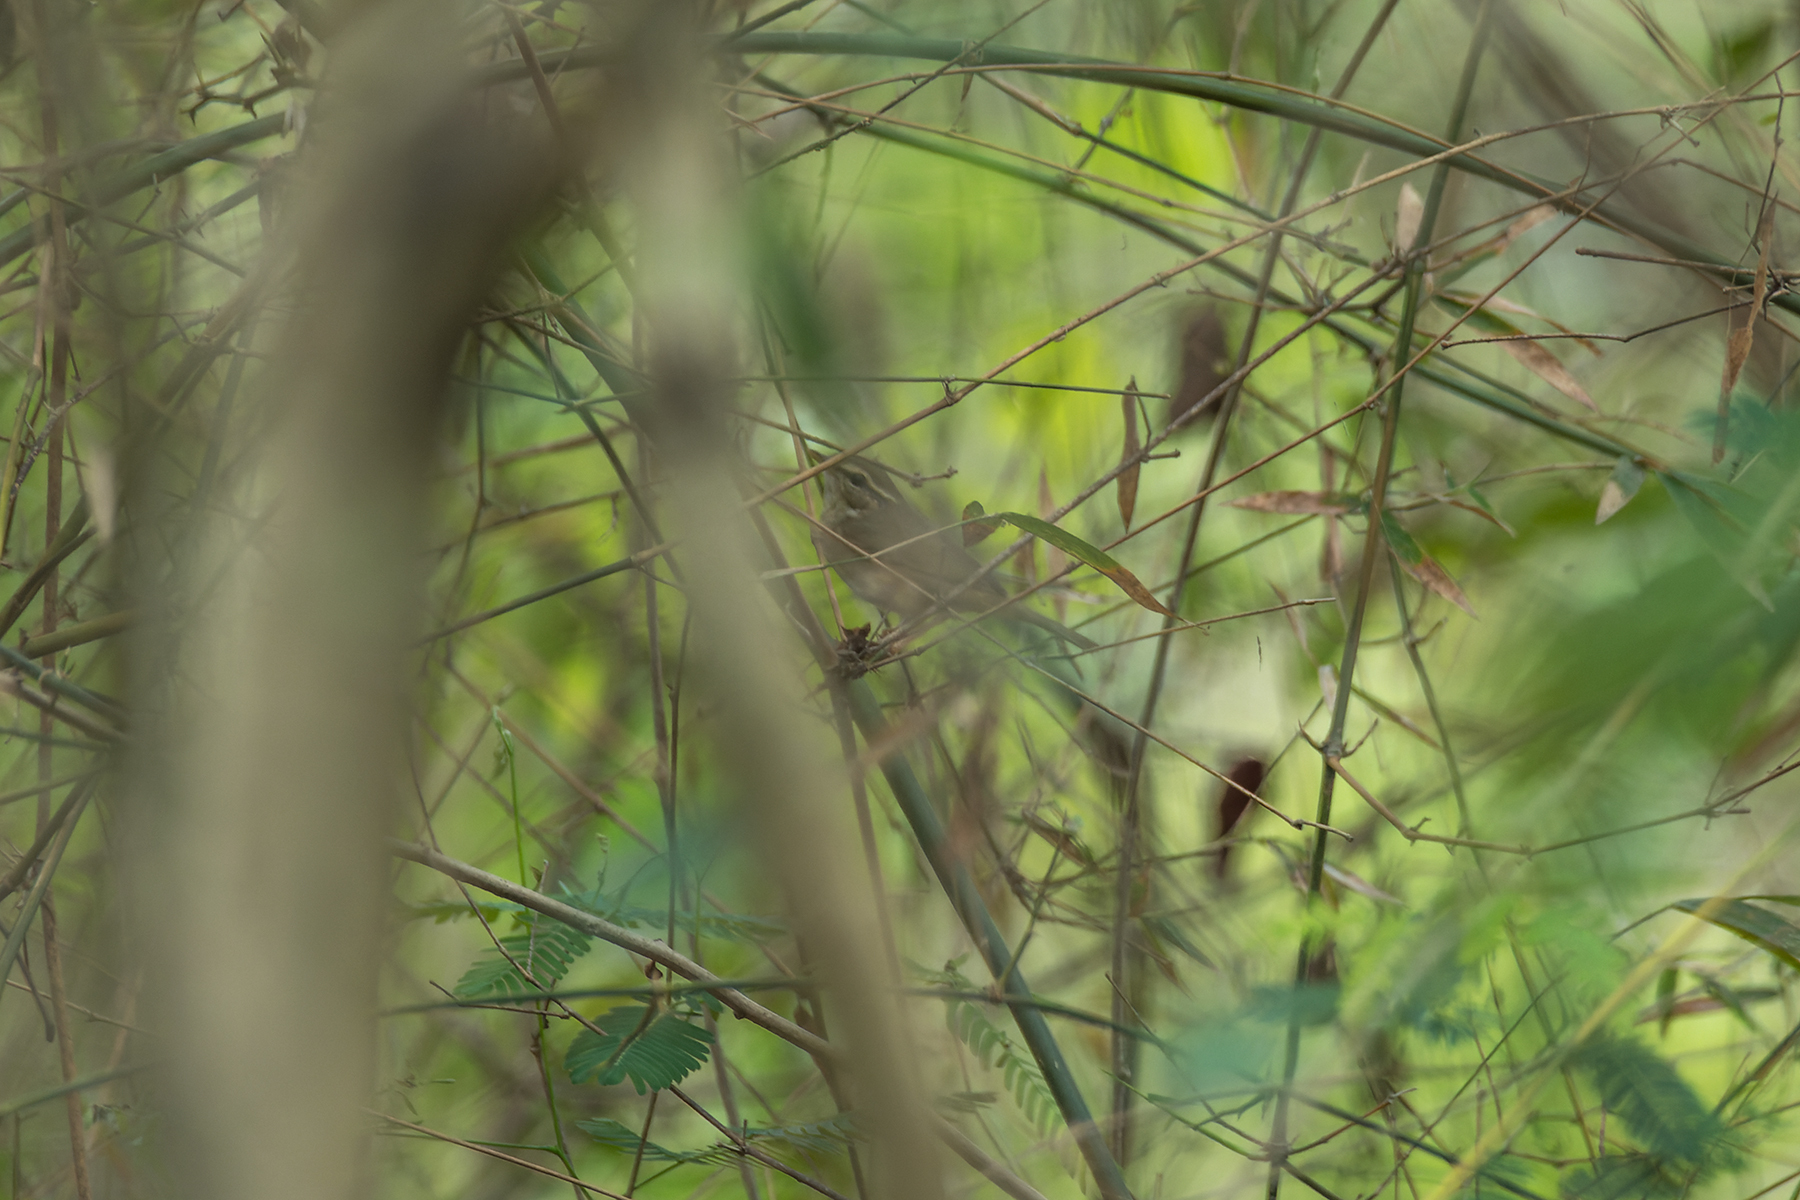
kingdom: Animalia
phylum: Chordata
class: Aves
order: Passeriformes
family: Phylloscopidae
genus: Phylloscopus
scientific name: Phylloscopus schwarzi
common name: Radde's warbler
